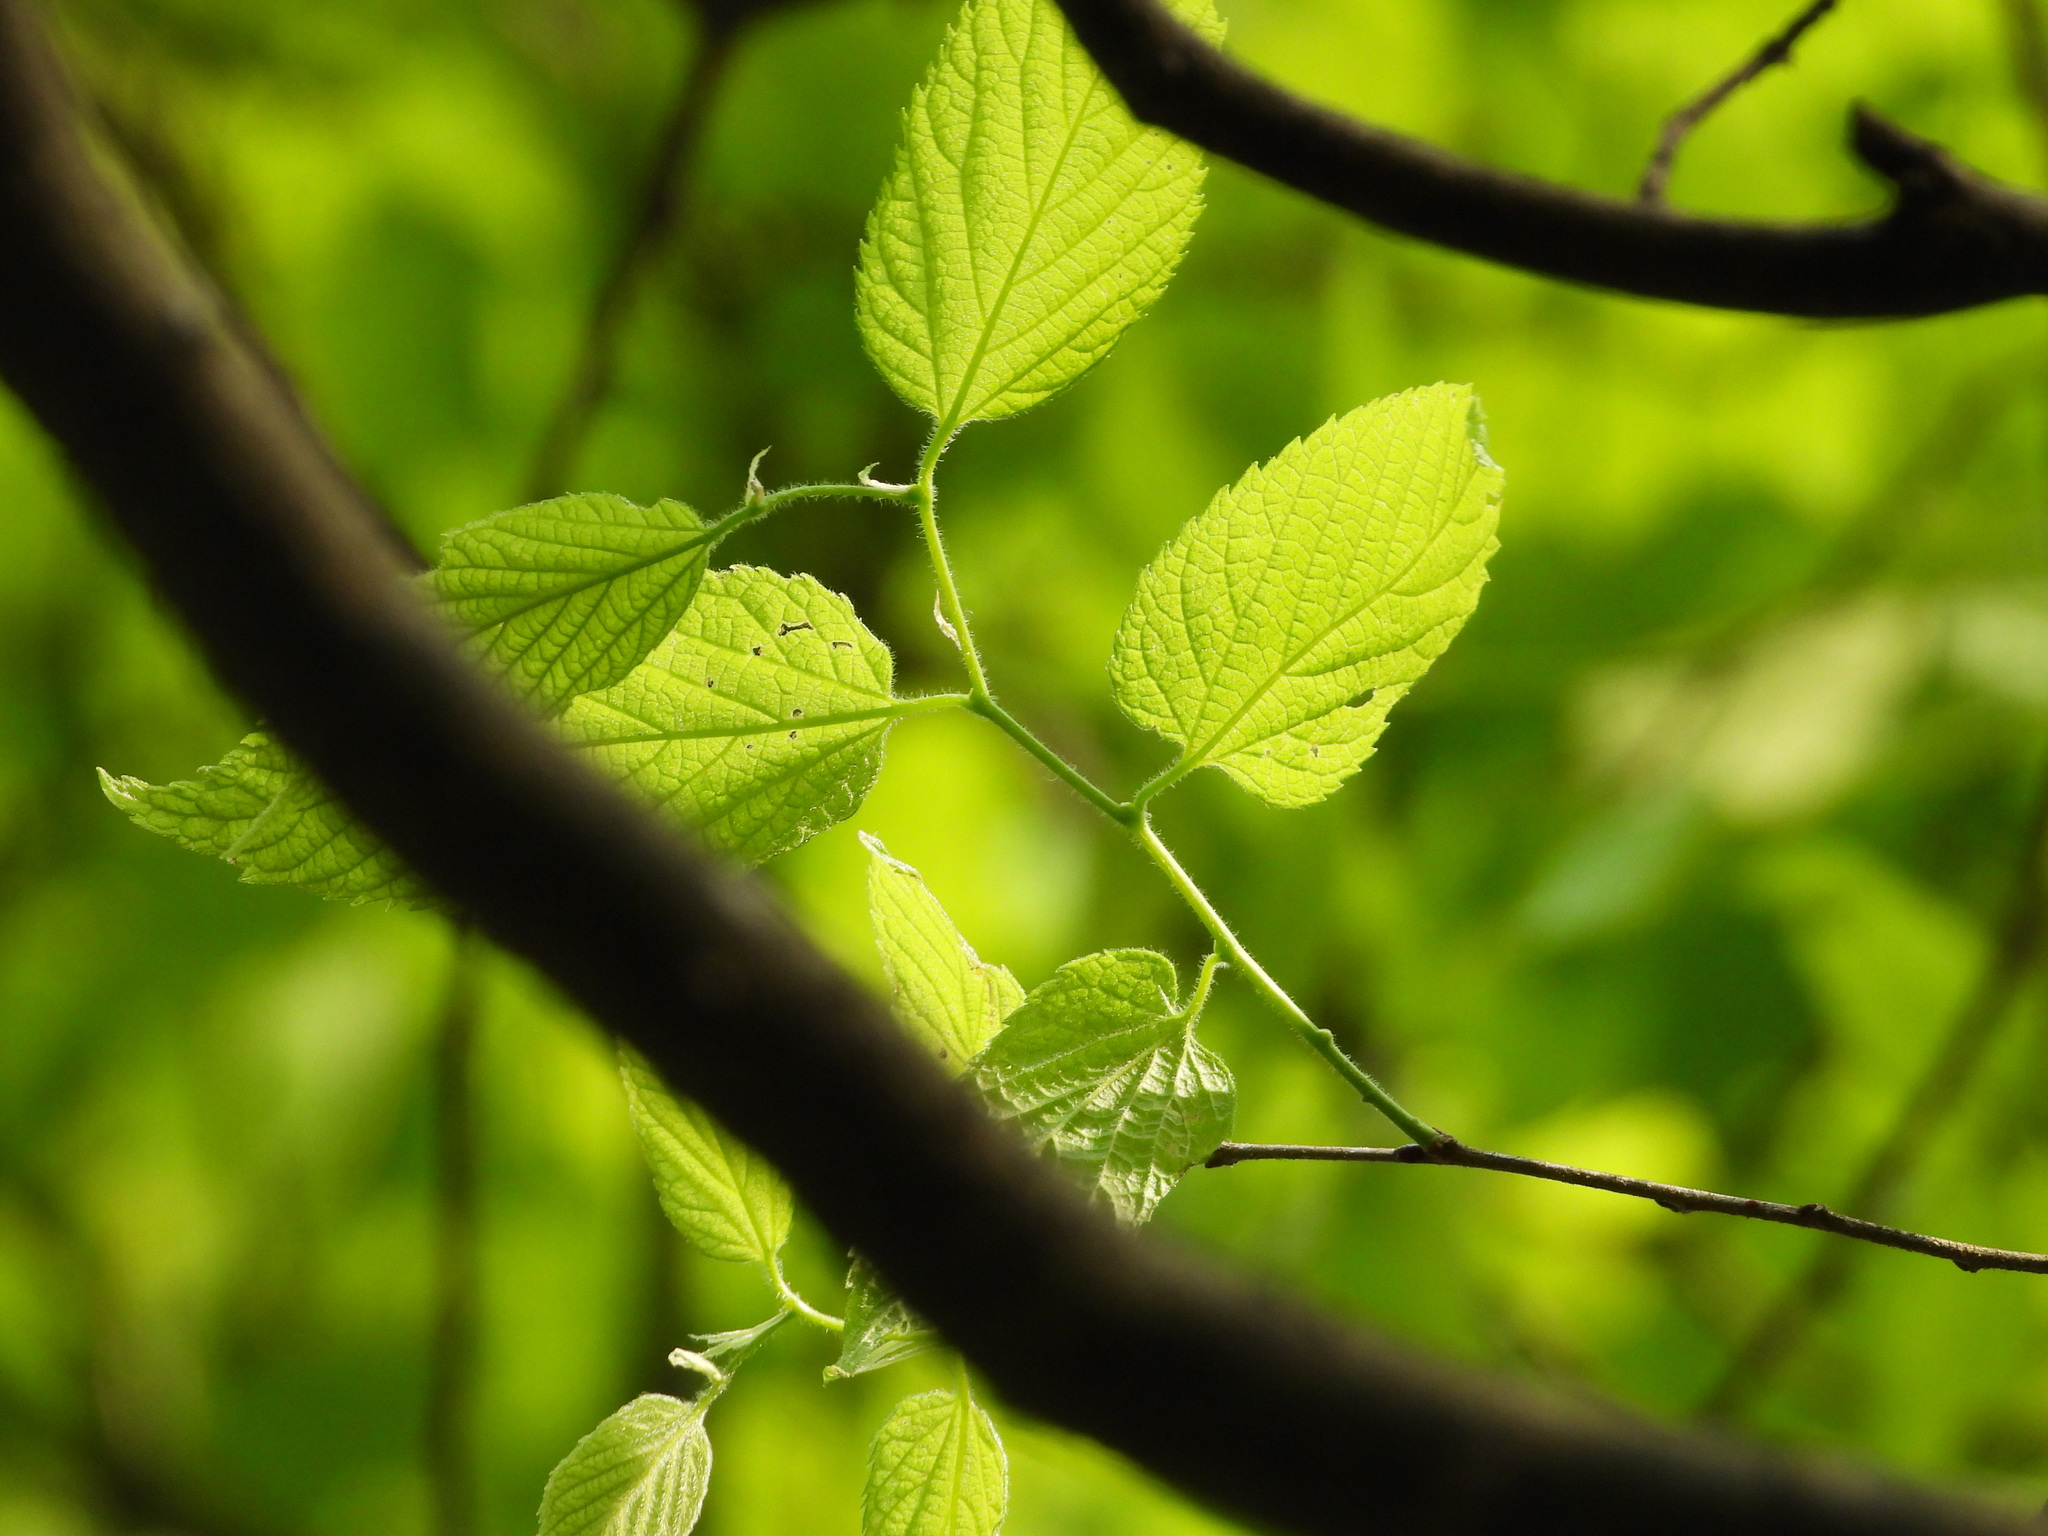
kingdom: Plantae
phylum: Tracheophyta
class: Magnoliopsida
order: Rosales
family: Cannabaceae
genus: Celtis
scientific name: Celtis occidentalis
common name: Common hackberry
